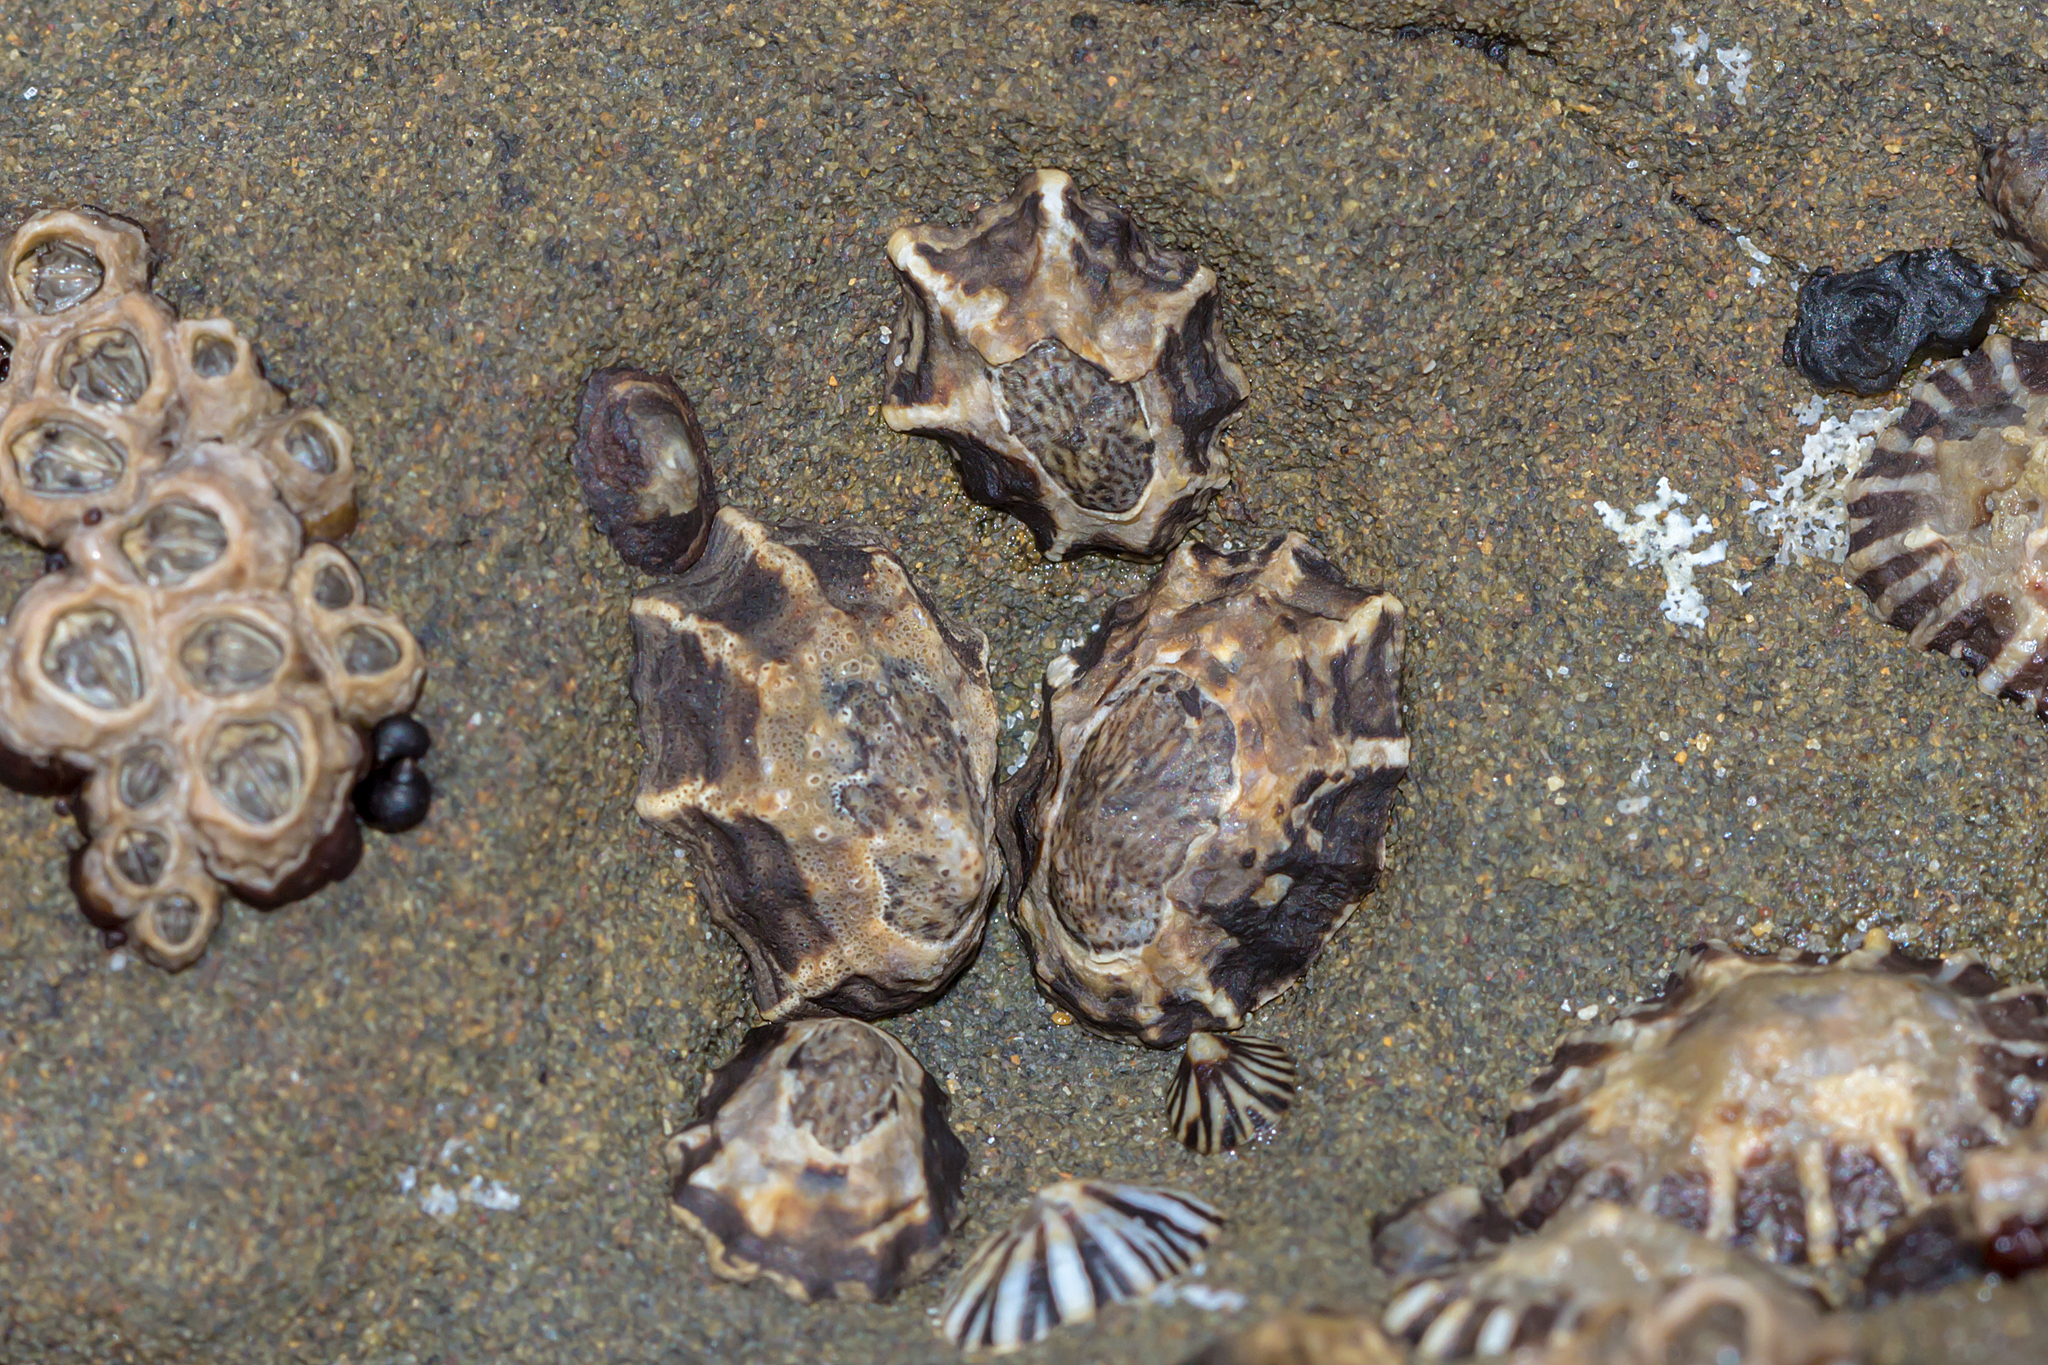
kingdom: Animalia
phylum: Mollusca
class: Gastropoda
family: Lottiidae
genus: Patelloida
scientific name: Patelloida latistrigata
